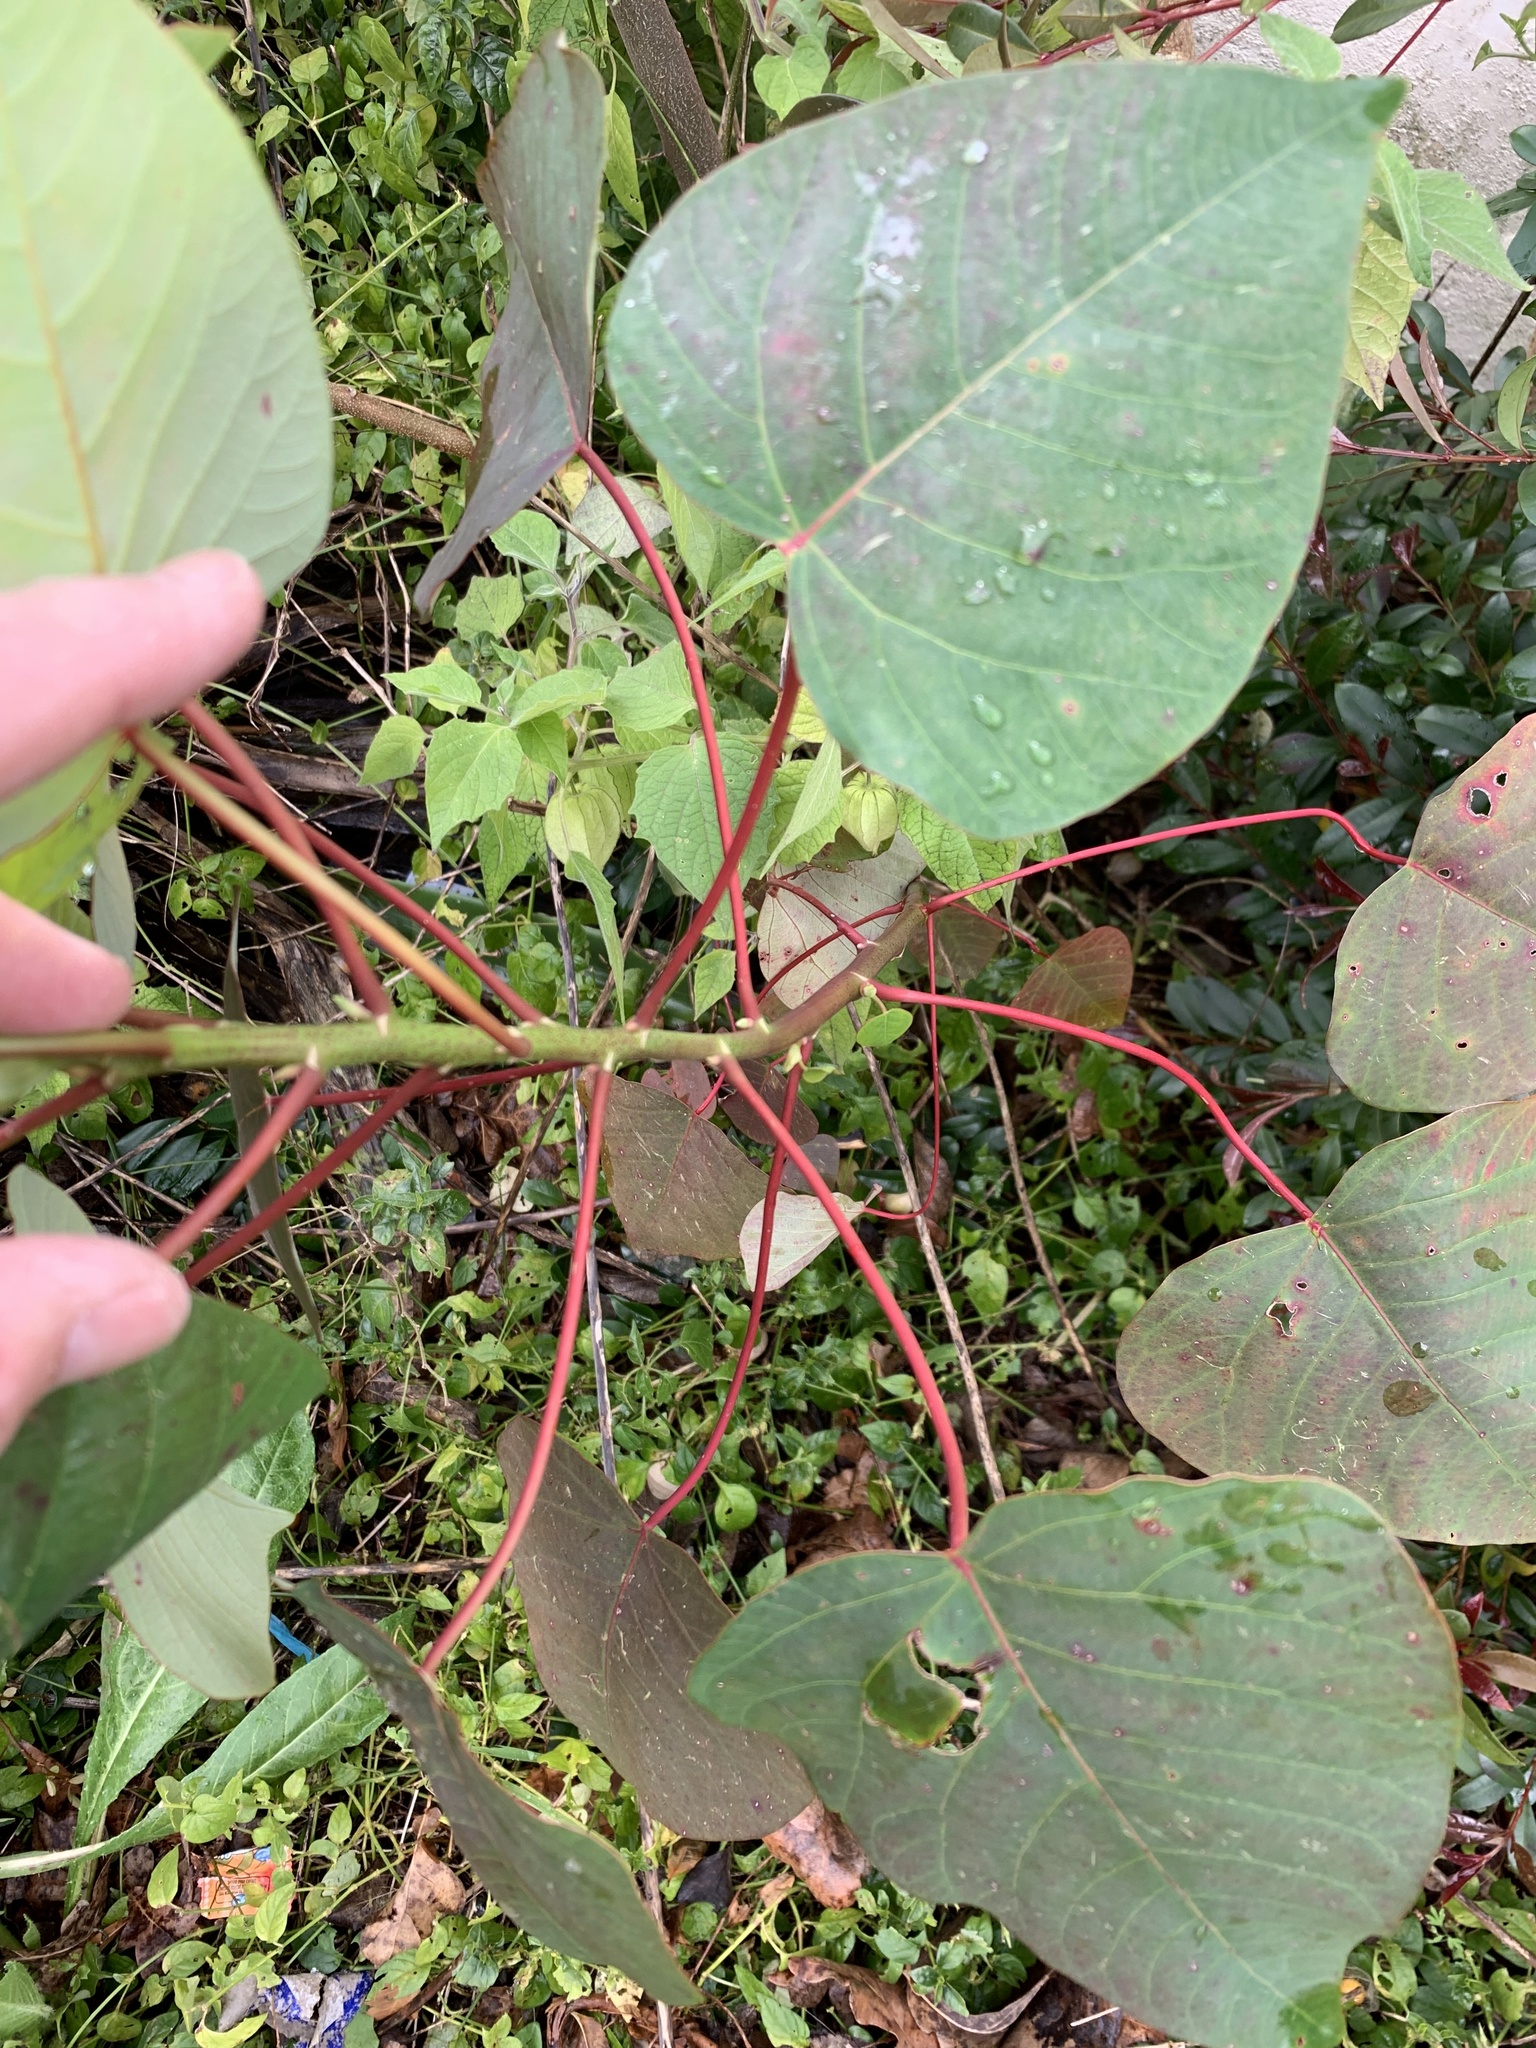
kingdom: Plantae
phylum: Tracheophyta
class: Magnoliopsida
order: Malpighiales
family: Euphorbiaceae
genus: Homalanthus
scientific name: Homalanthus populifolius
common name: Queensland poplar
